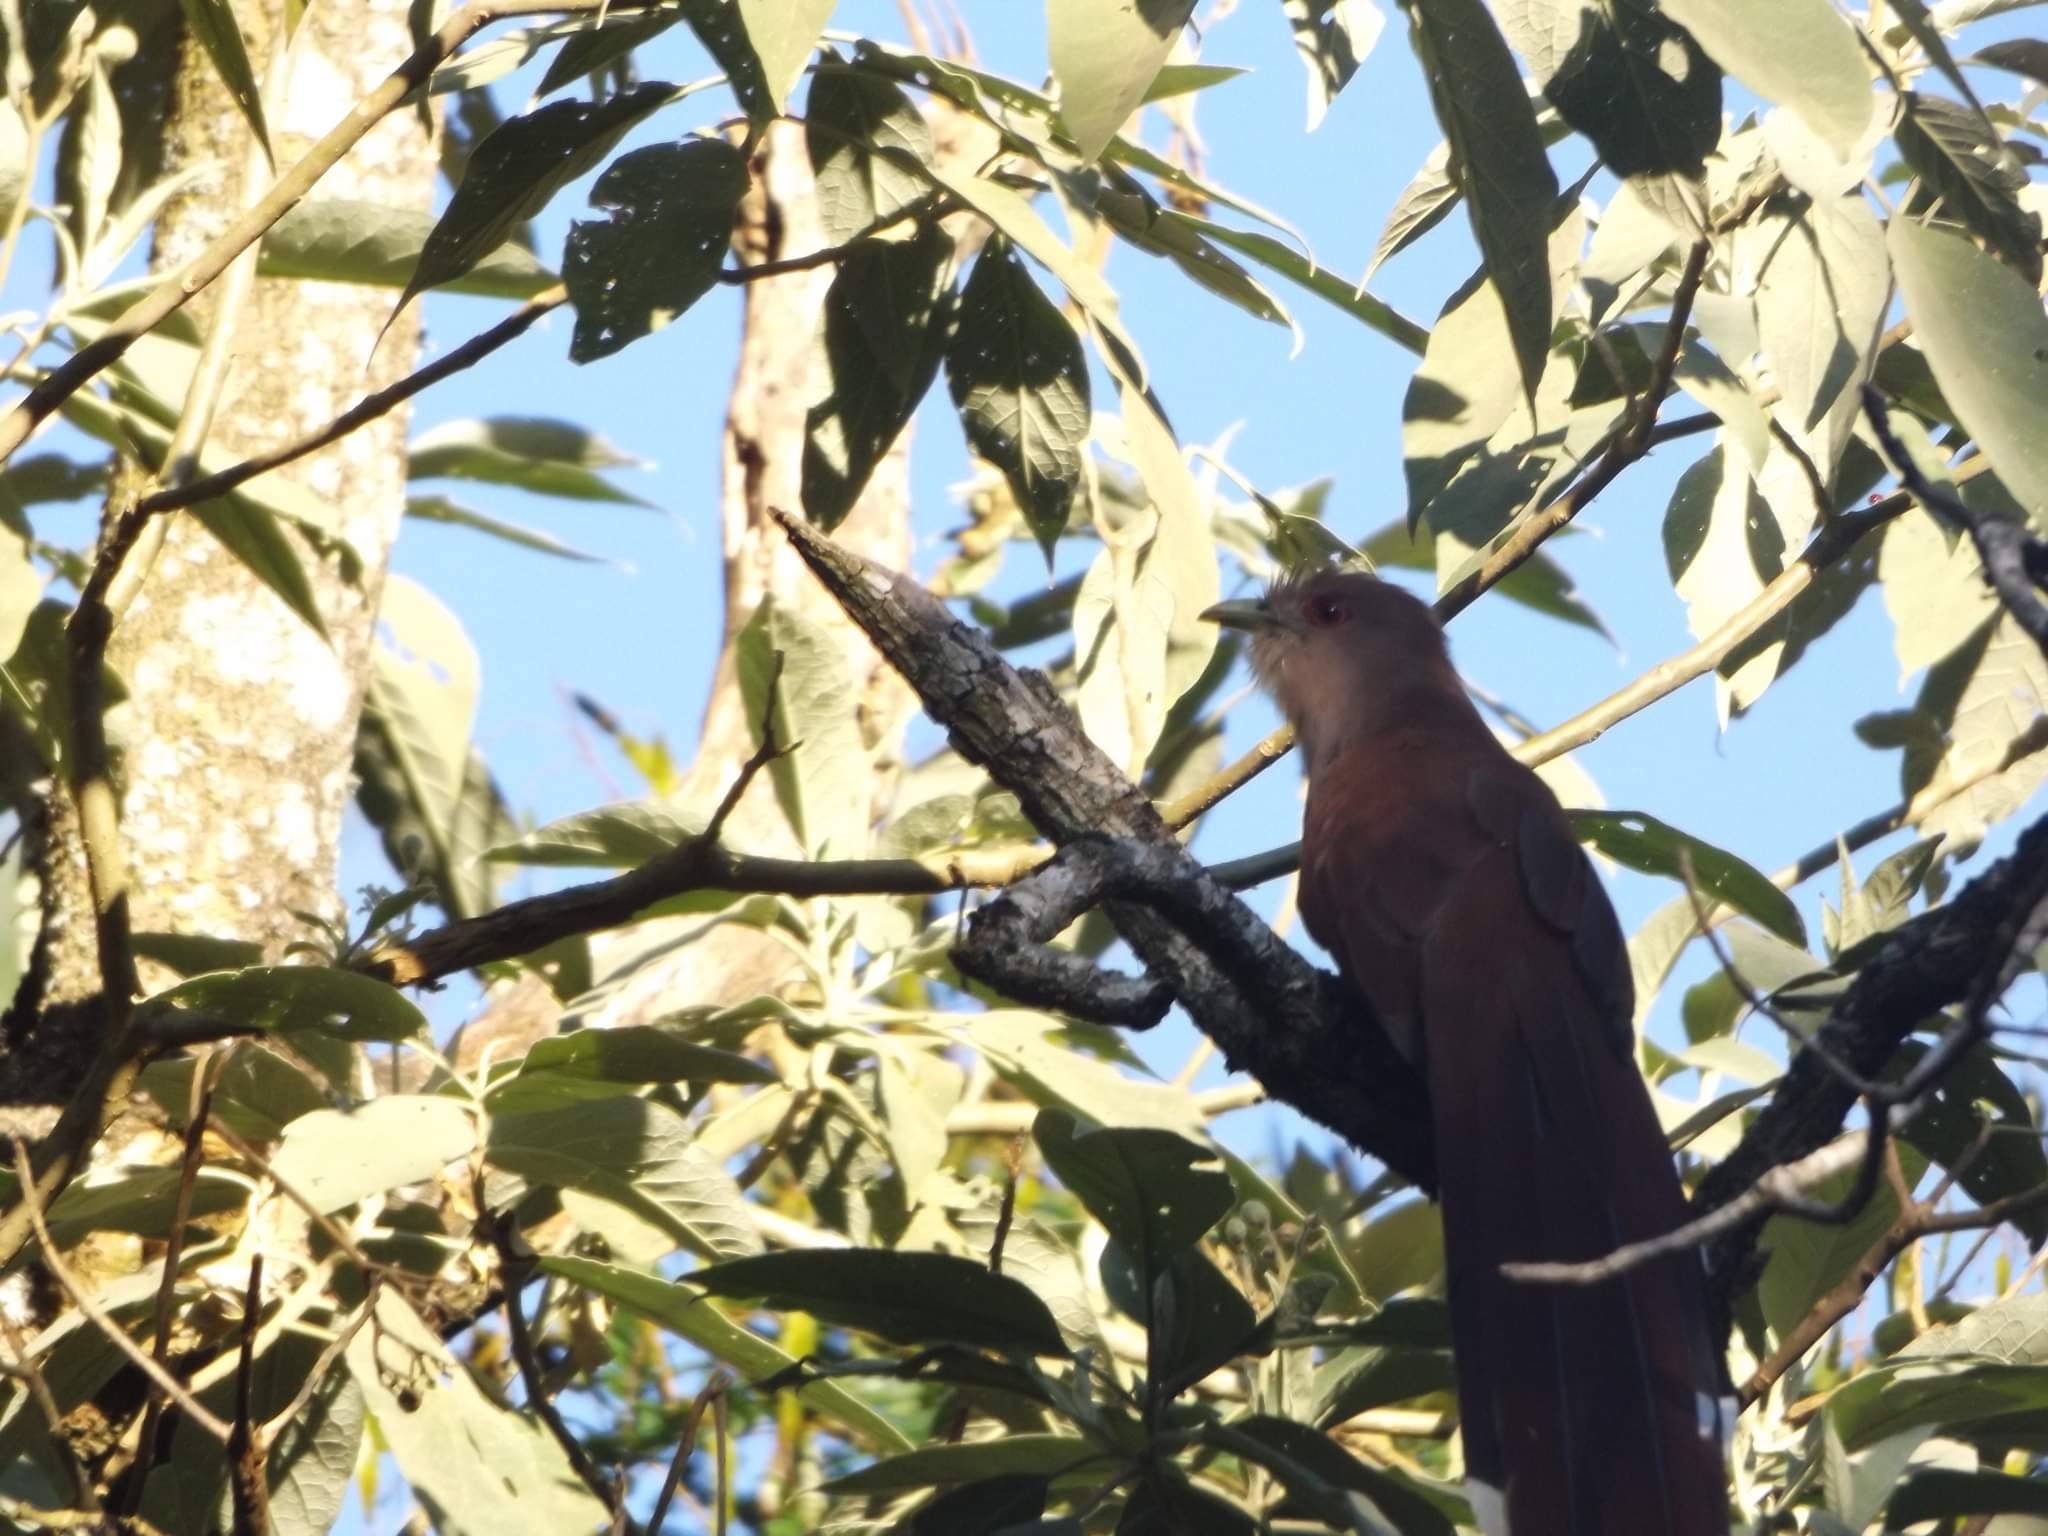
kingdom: Animalia
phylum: Chordata
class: Aves
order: Cuculiformes
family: Cuculidae
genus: Piaya
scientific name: Piaya cayana
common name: Squirrel cuckoo
